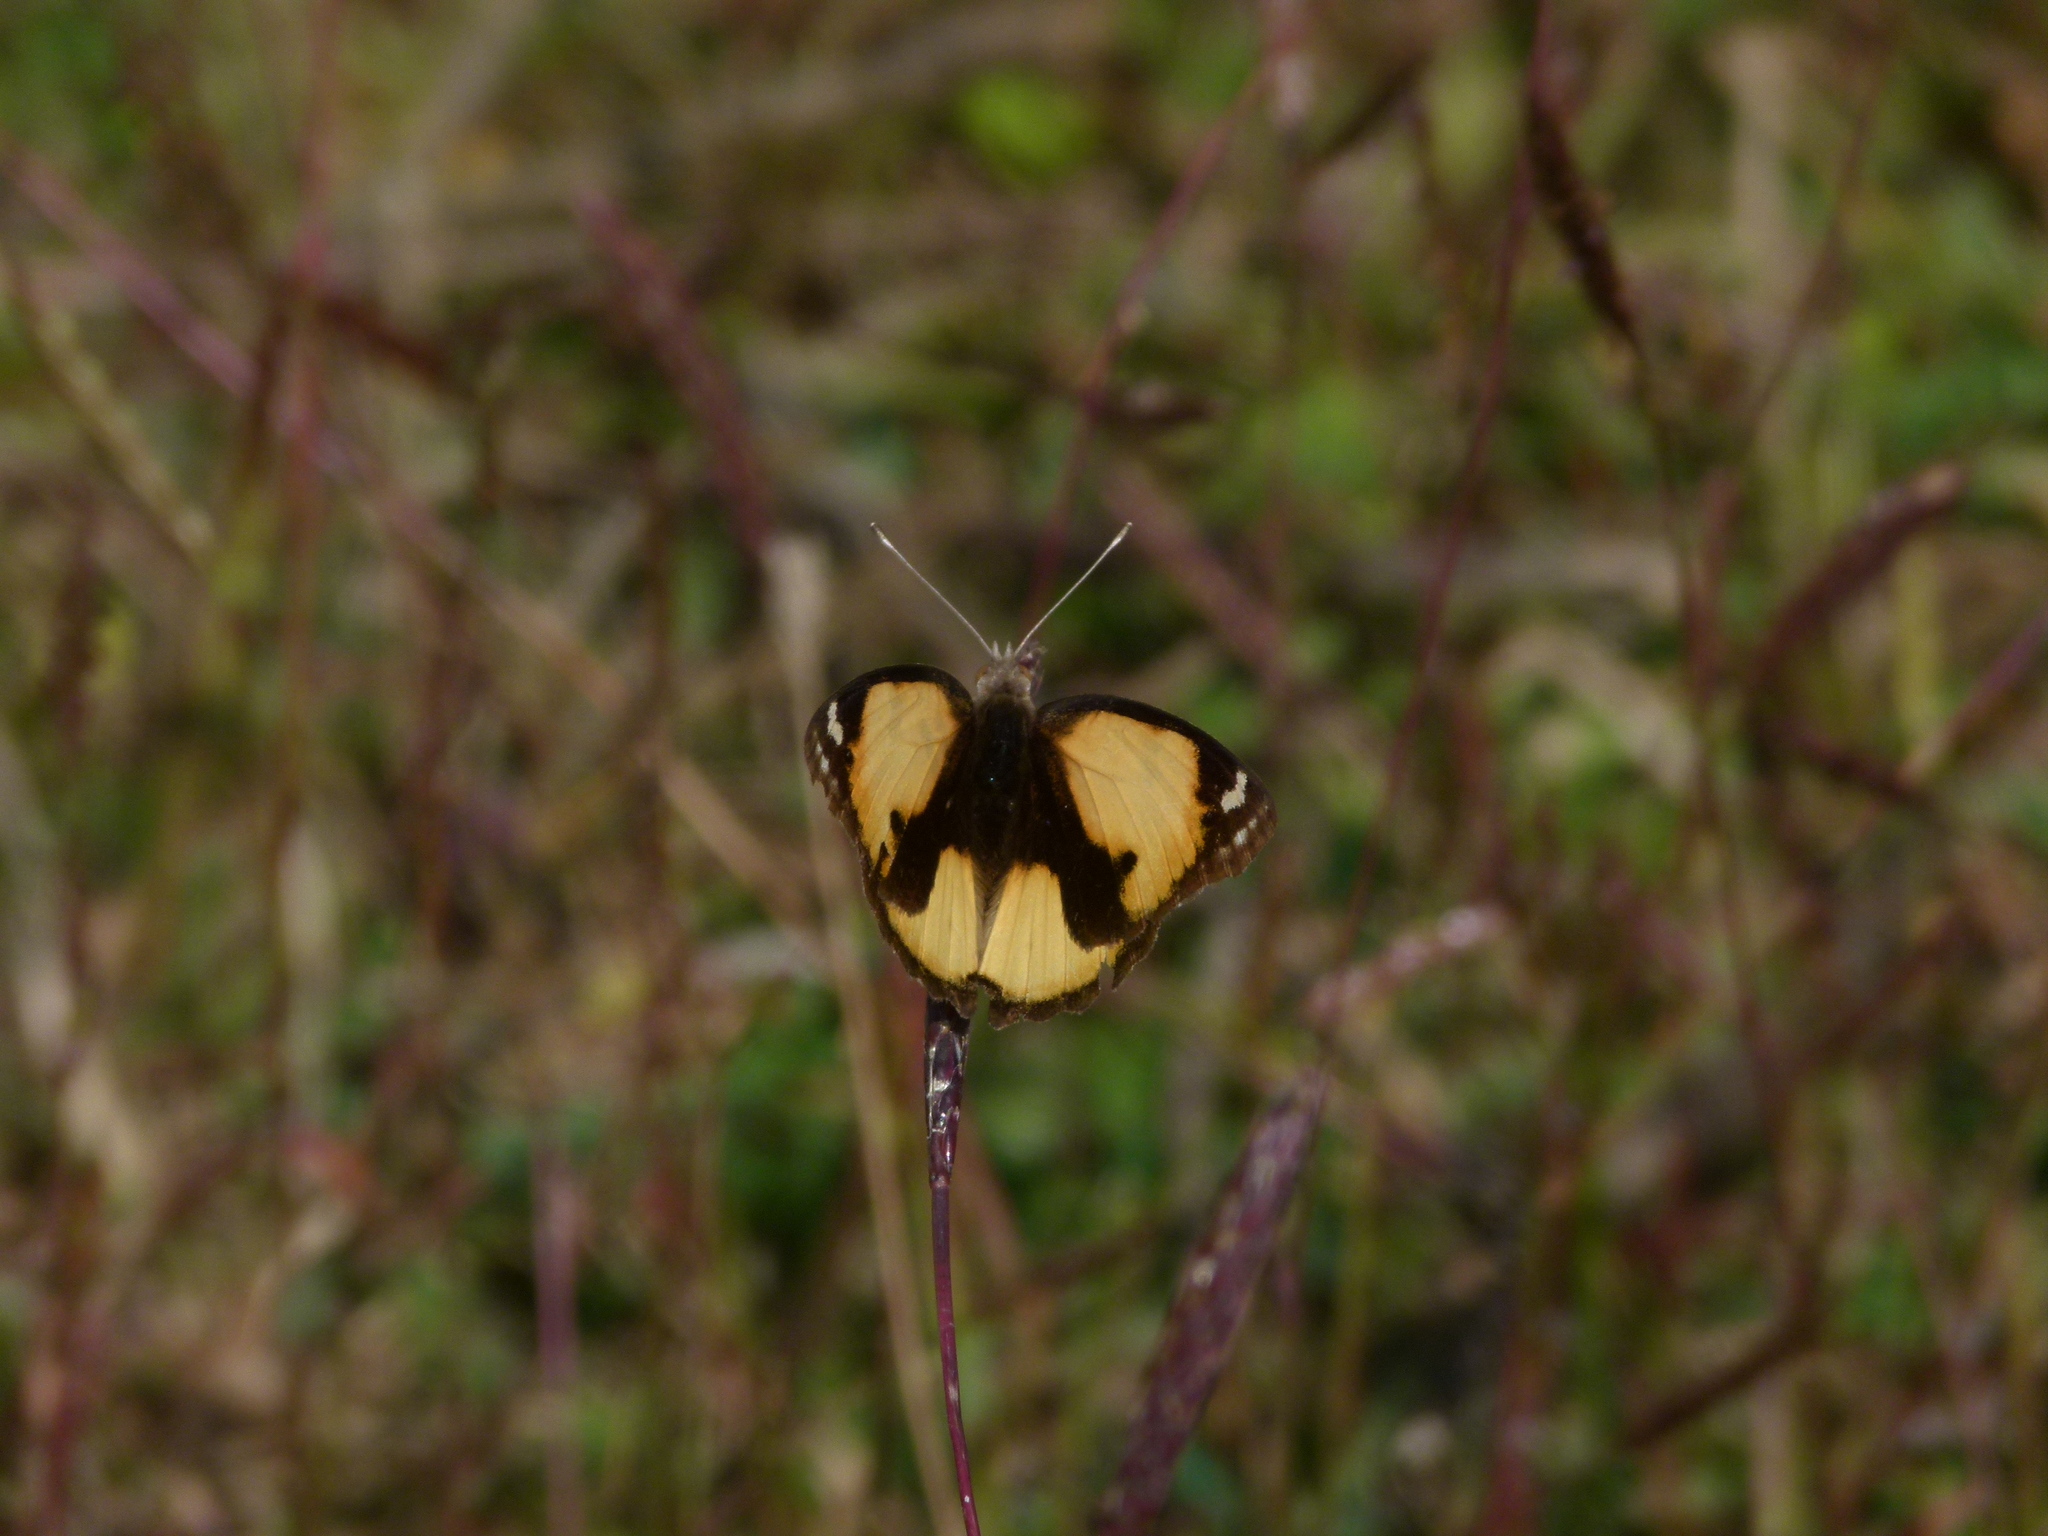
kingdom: Animalia
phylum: Arthropoda
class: Insecta
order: Lepidoptera
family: Nymphalidae
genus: Junonia
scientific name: Junonia hierta
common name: Yellow pansy
